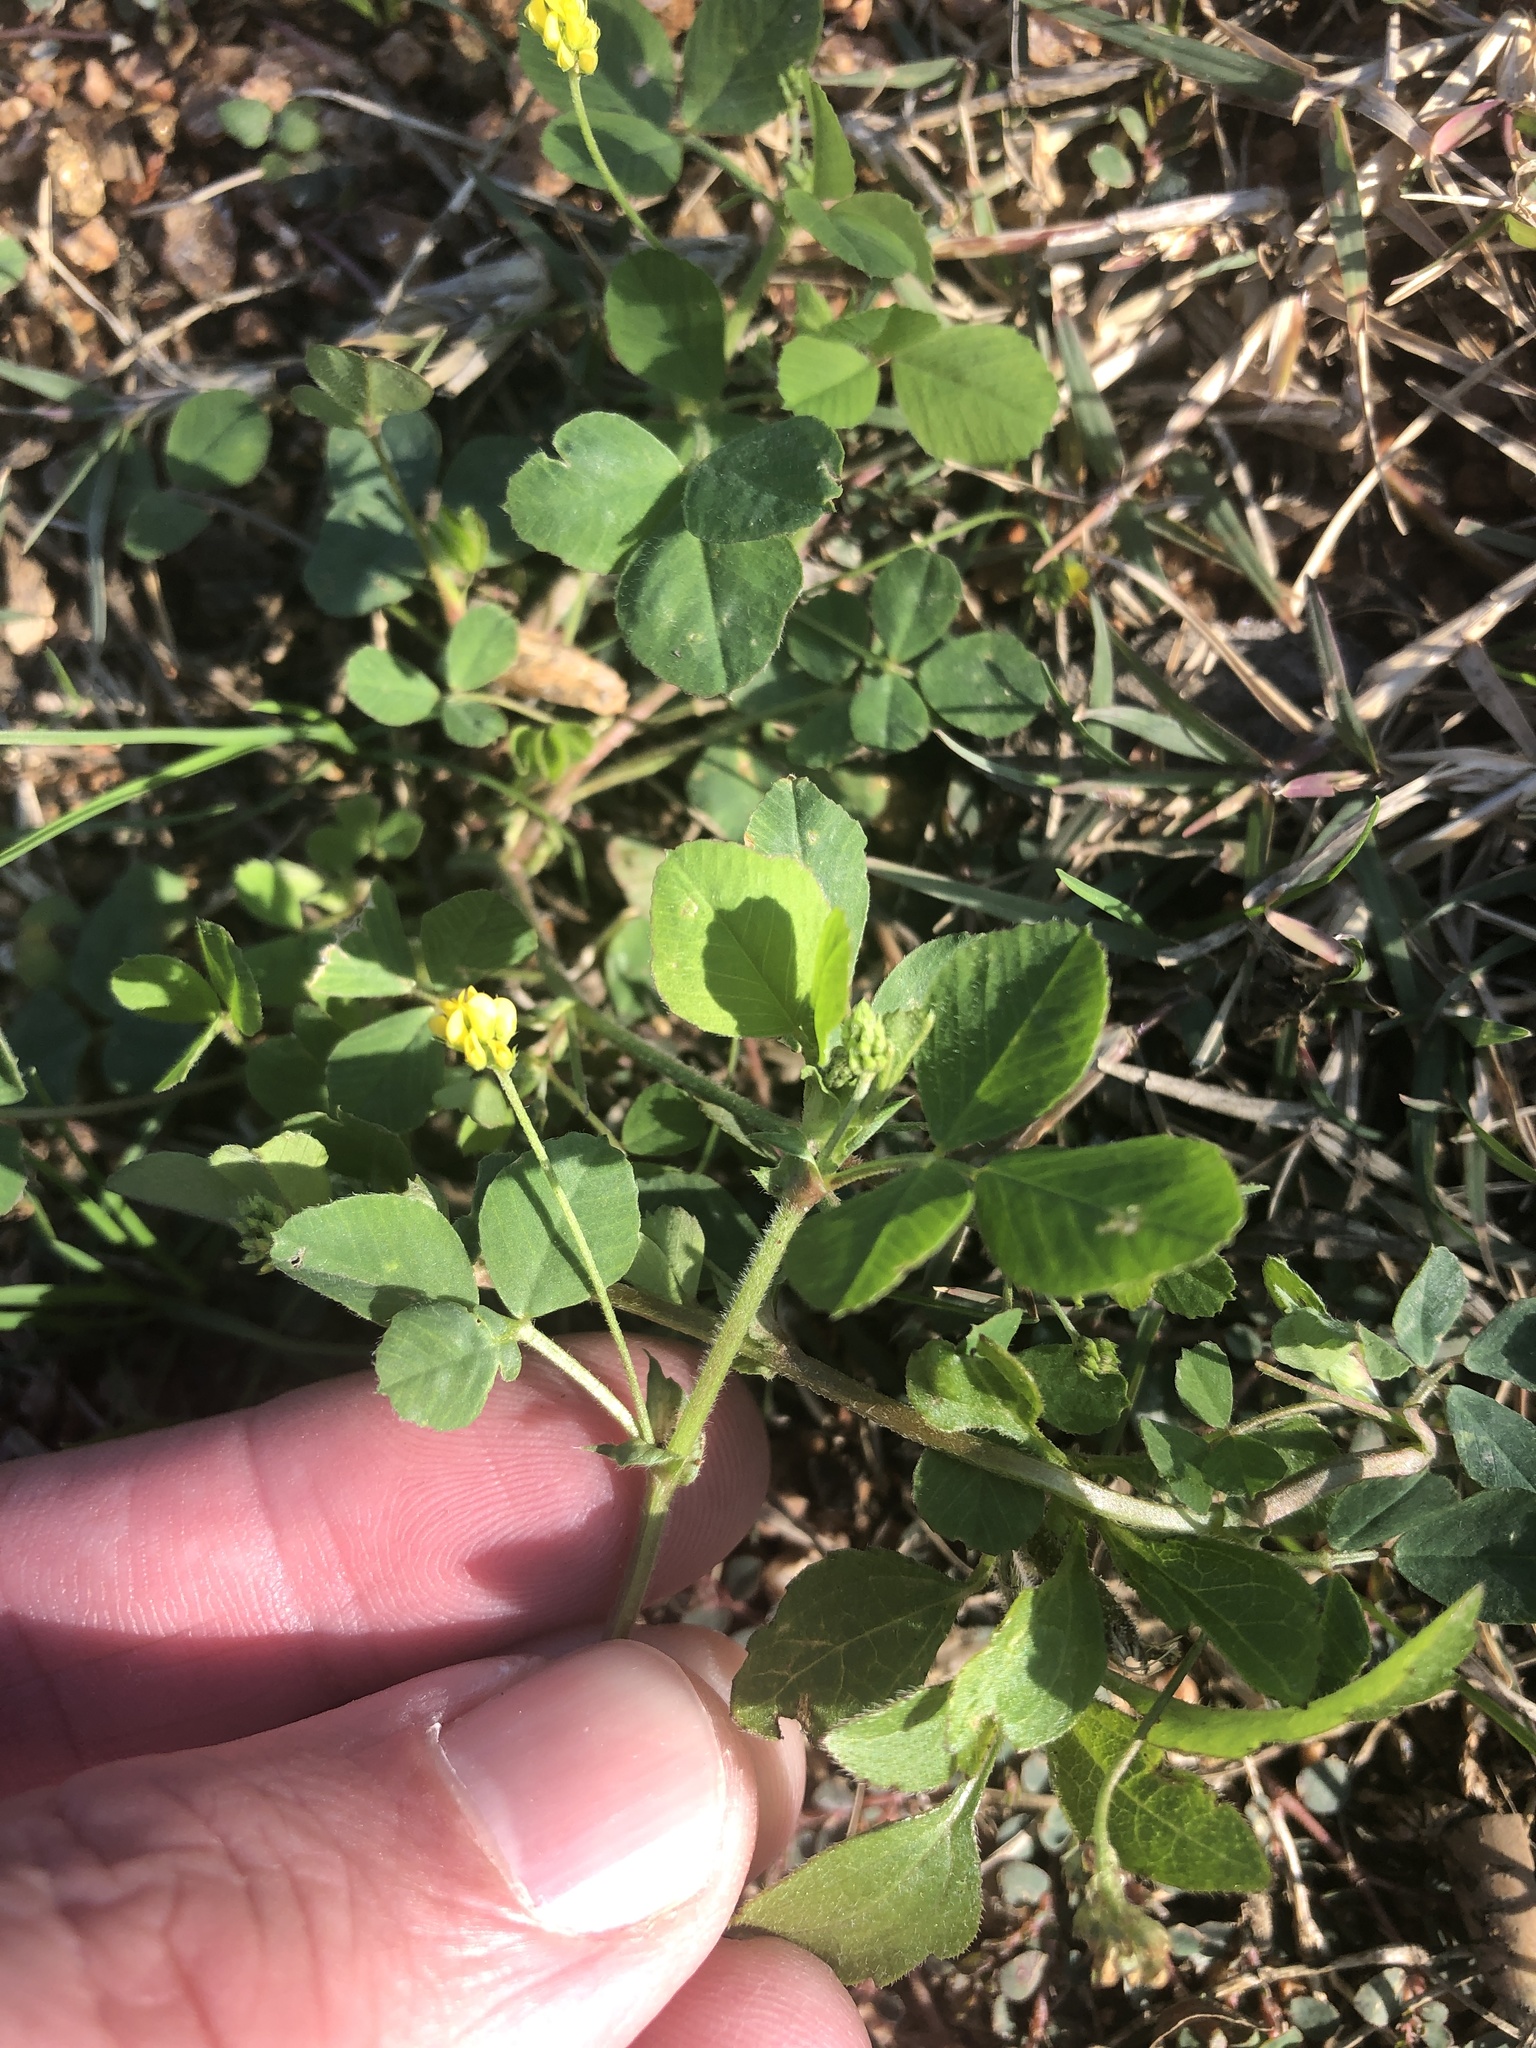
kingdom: Plantae
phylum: Tracheophyta
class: Magnoliopsida
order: Fabales
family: Fabaceae
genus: Medicago
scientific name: Medicago lupulina
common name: Black medick
